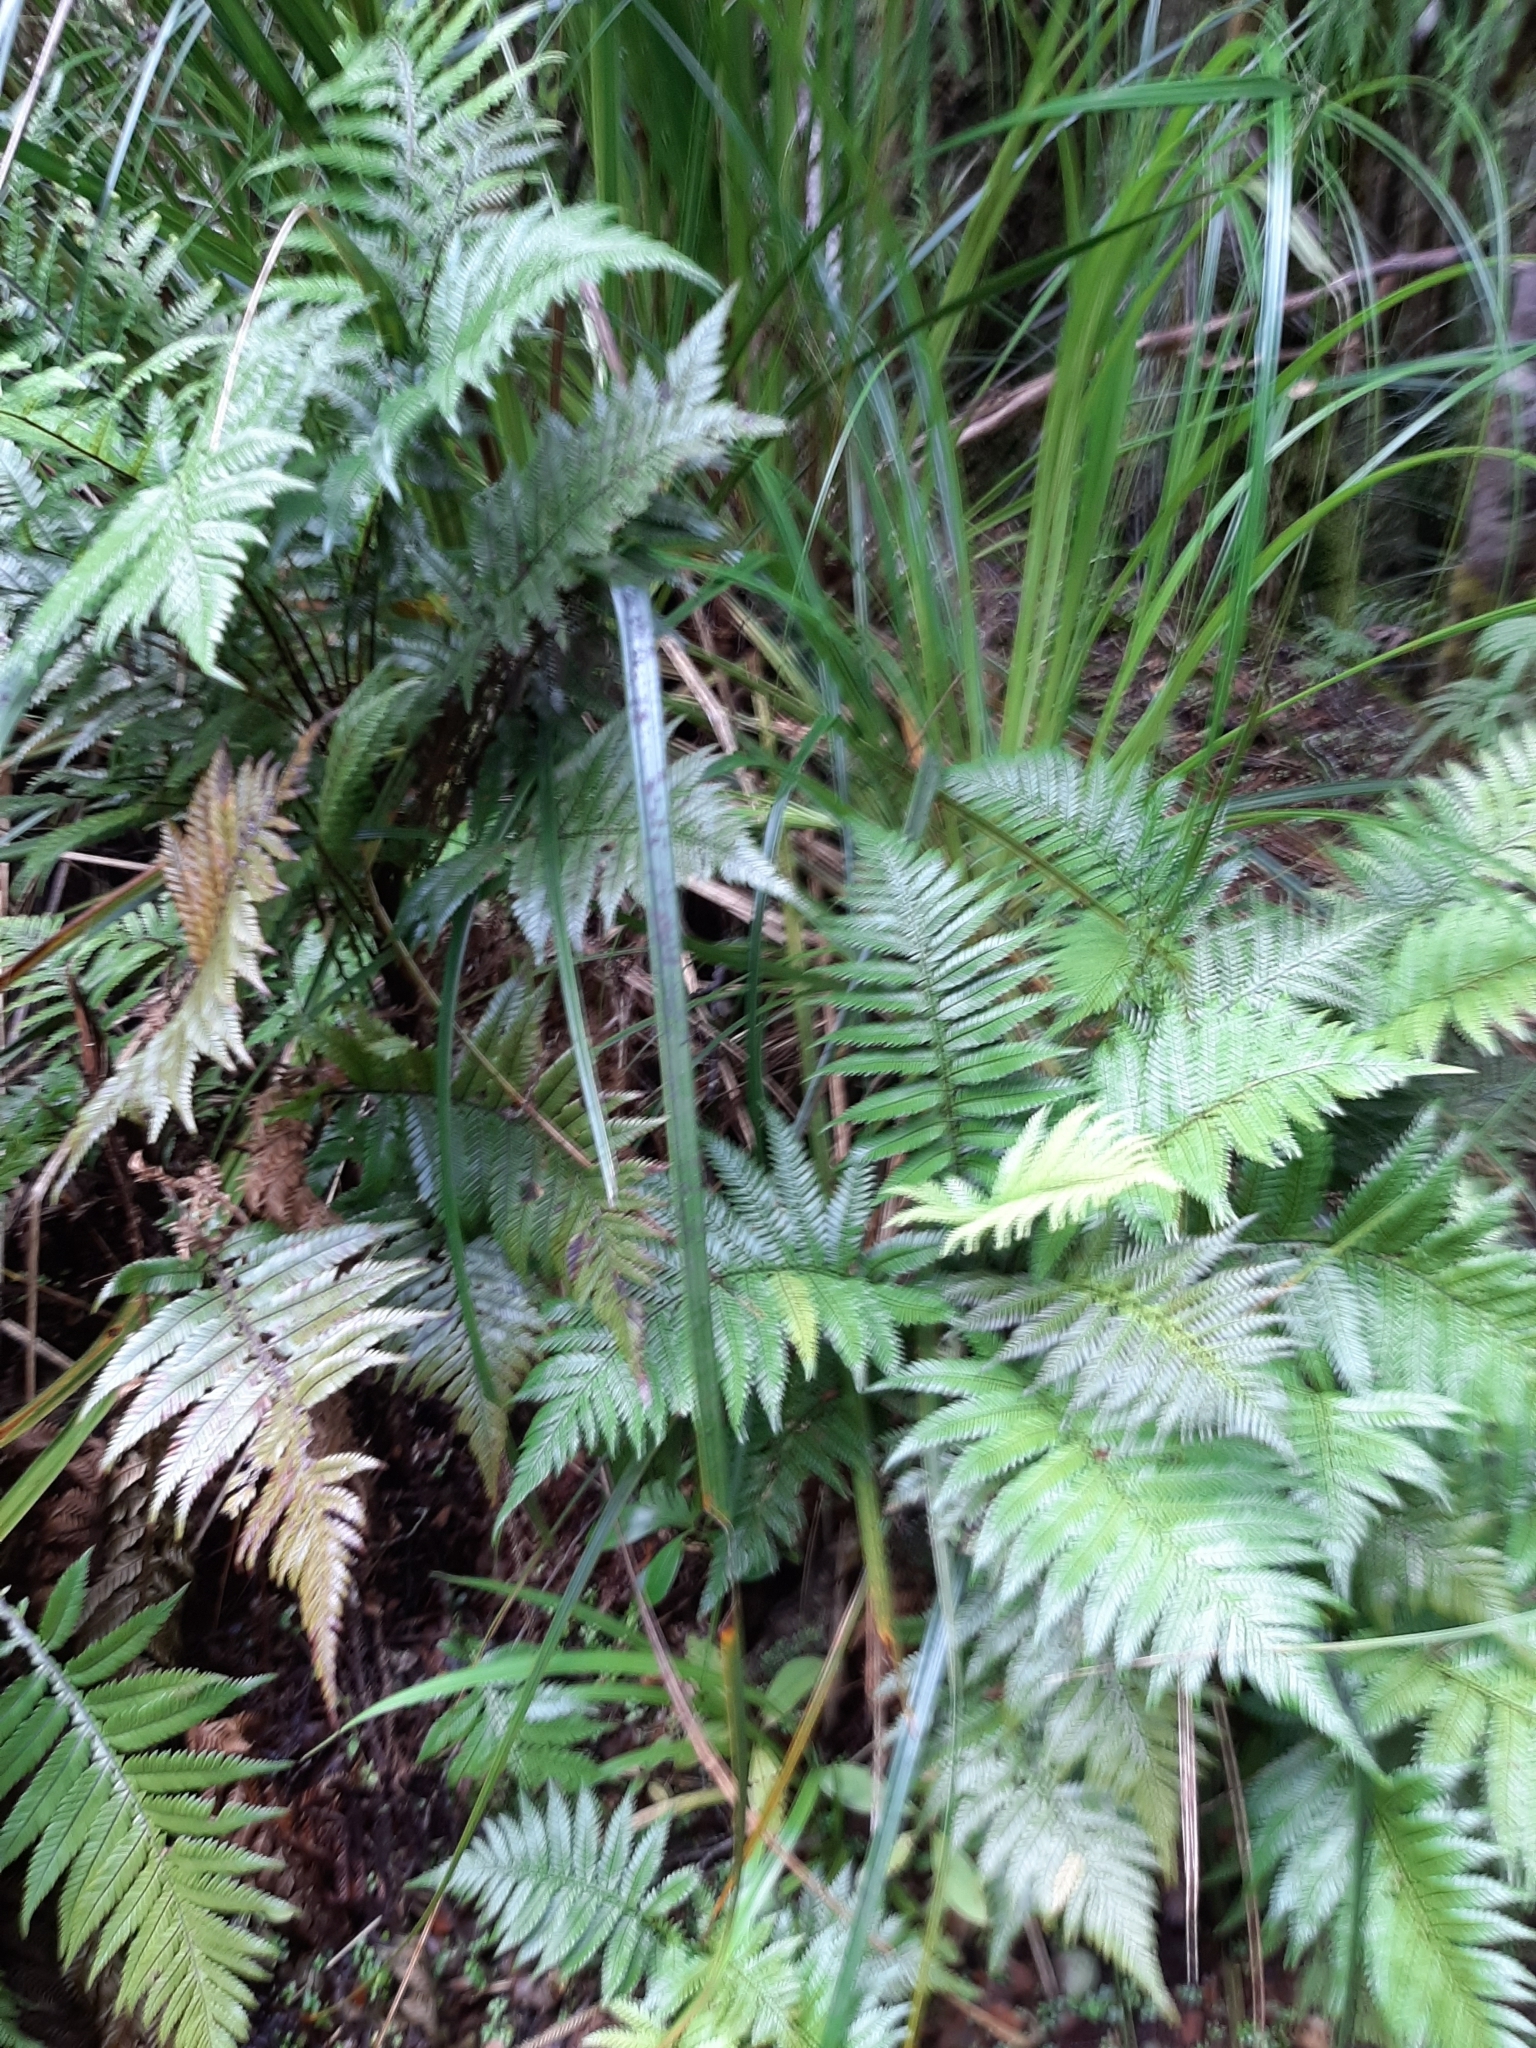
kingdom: Plantae
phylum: Tracheophyta
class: Polypodiopsida
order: Polypodiales
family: Blechnaceae
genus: Diploblechnum
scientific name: Diploblechnum fraseri
